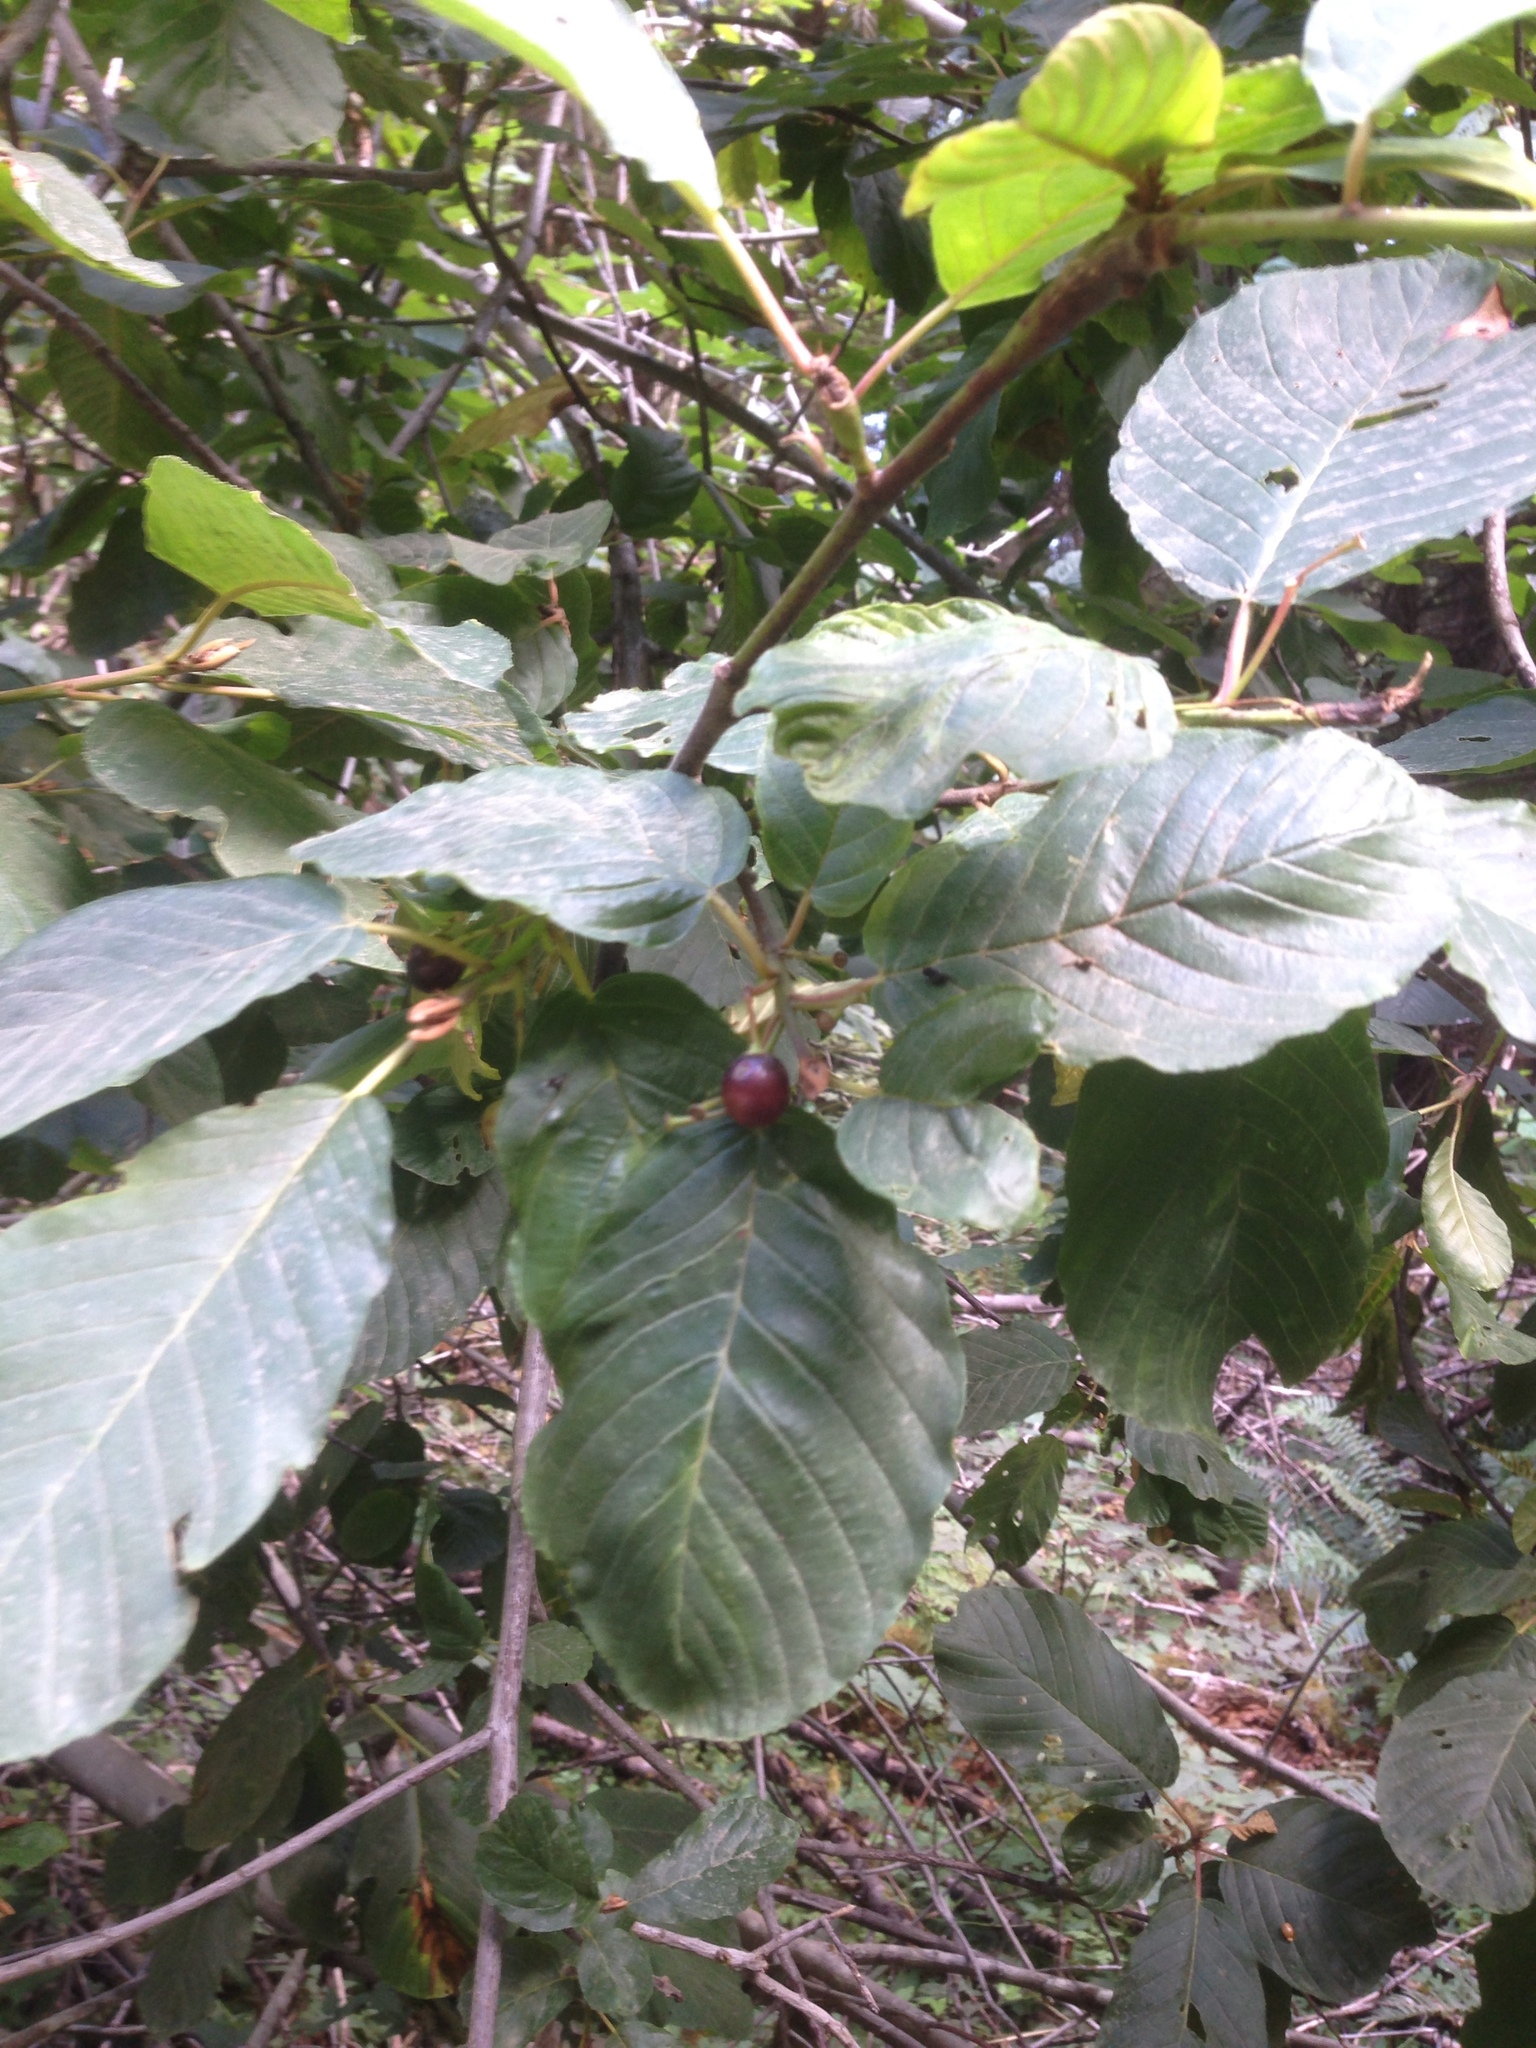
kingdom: Plantae
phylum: Tracheophyta
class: Magnoliopsida
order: Rosales
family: Rhamnaceae
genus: Frangula
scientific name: Frangula purshiana
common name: Cascara buckthorn
